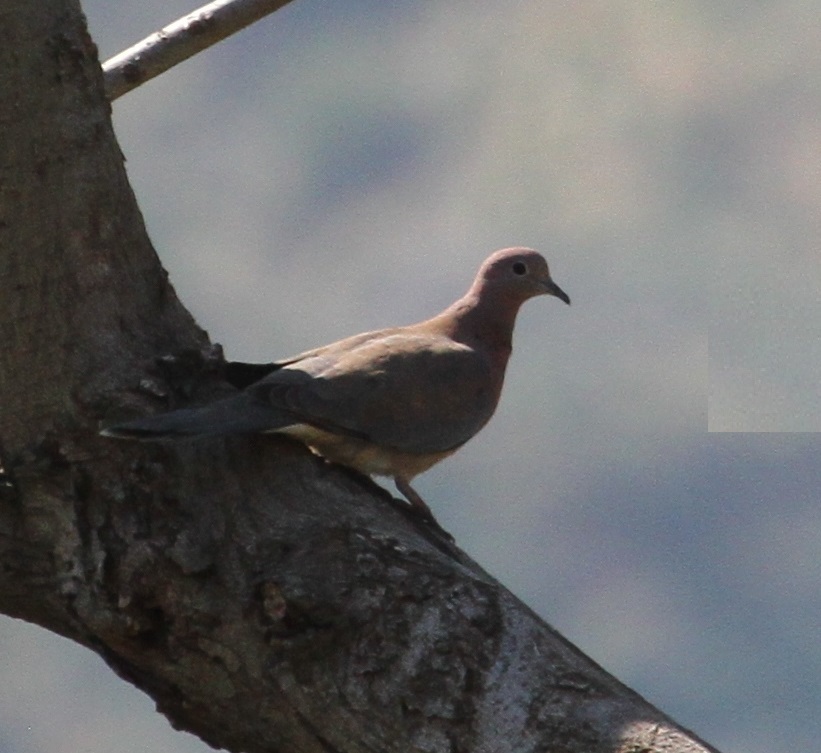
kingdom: Animalia
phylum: Chordata
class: Aves
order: Columbiformes
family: Columbidae
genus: Spilopelia
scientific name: Spilopelia senegalensis
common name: Laughing dove
